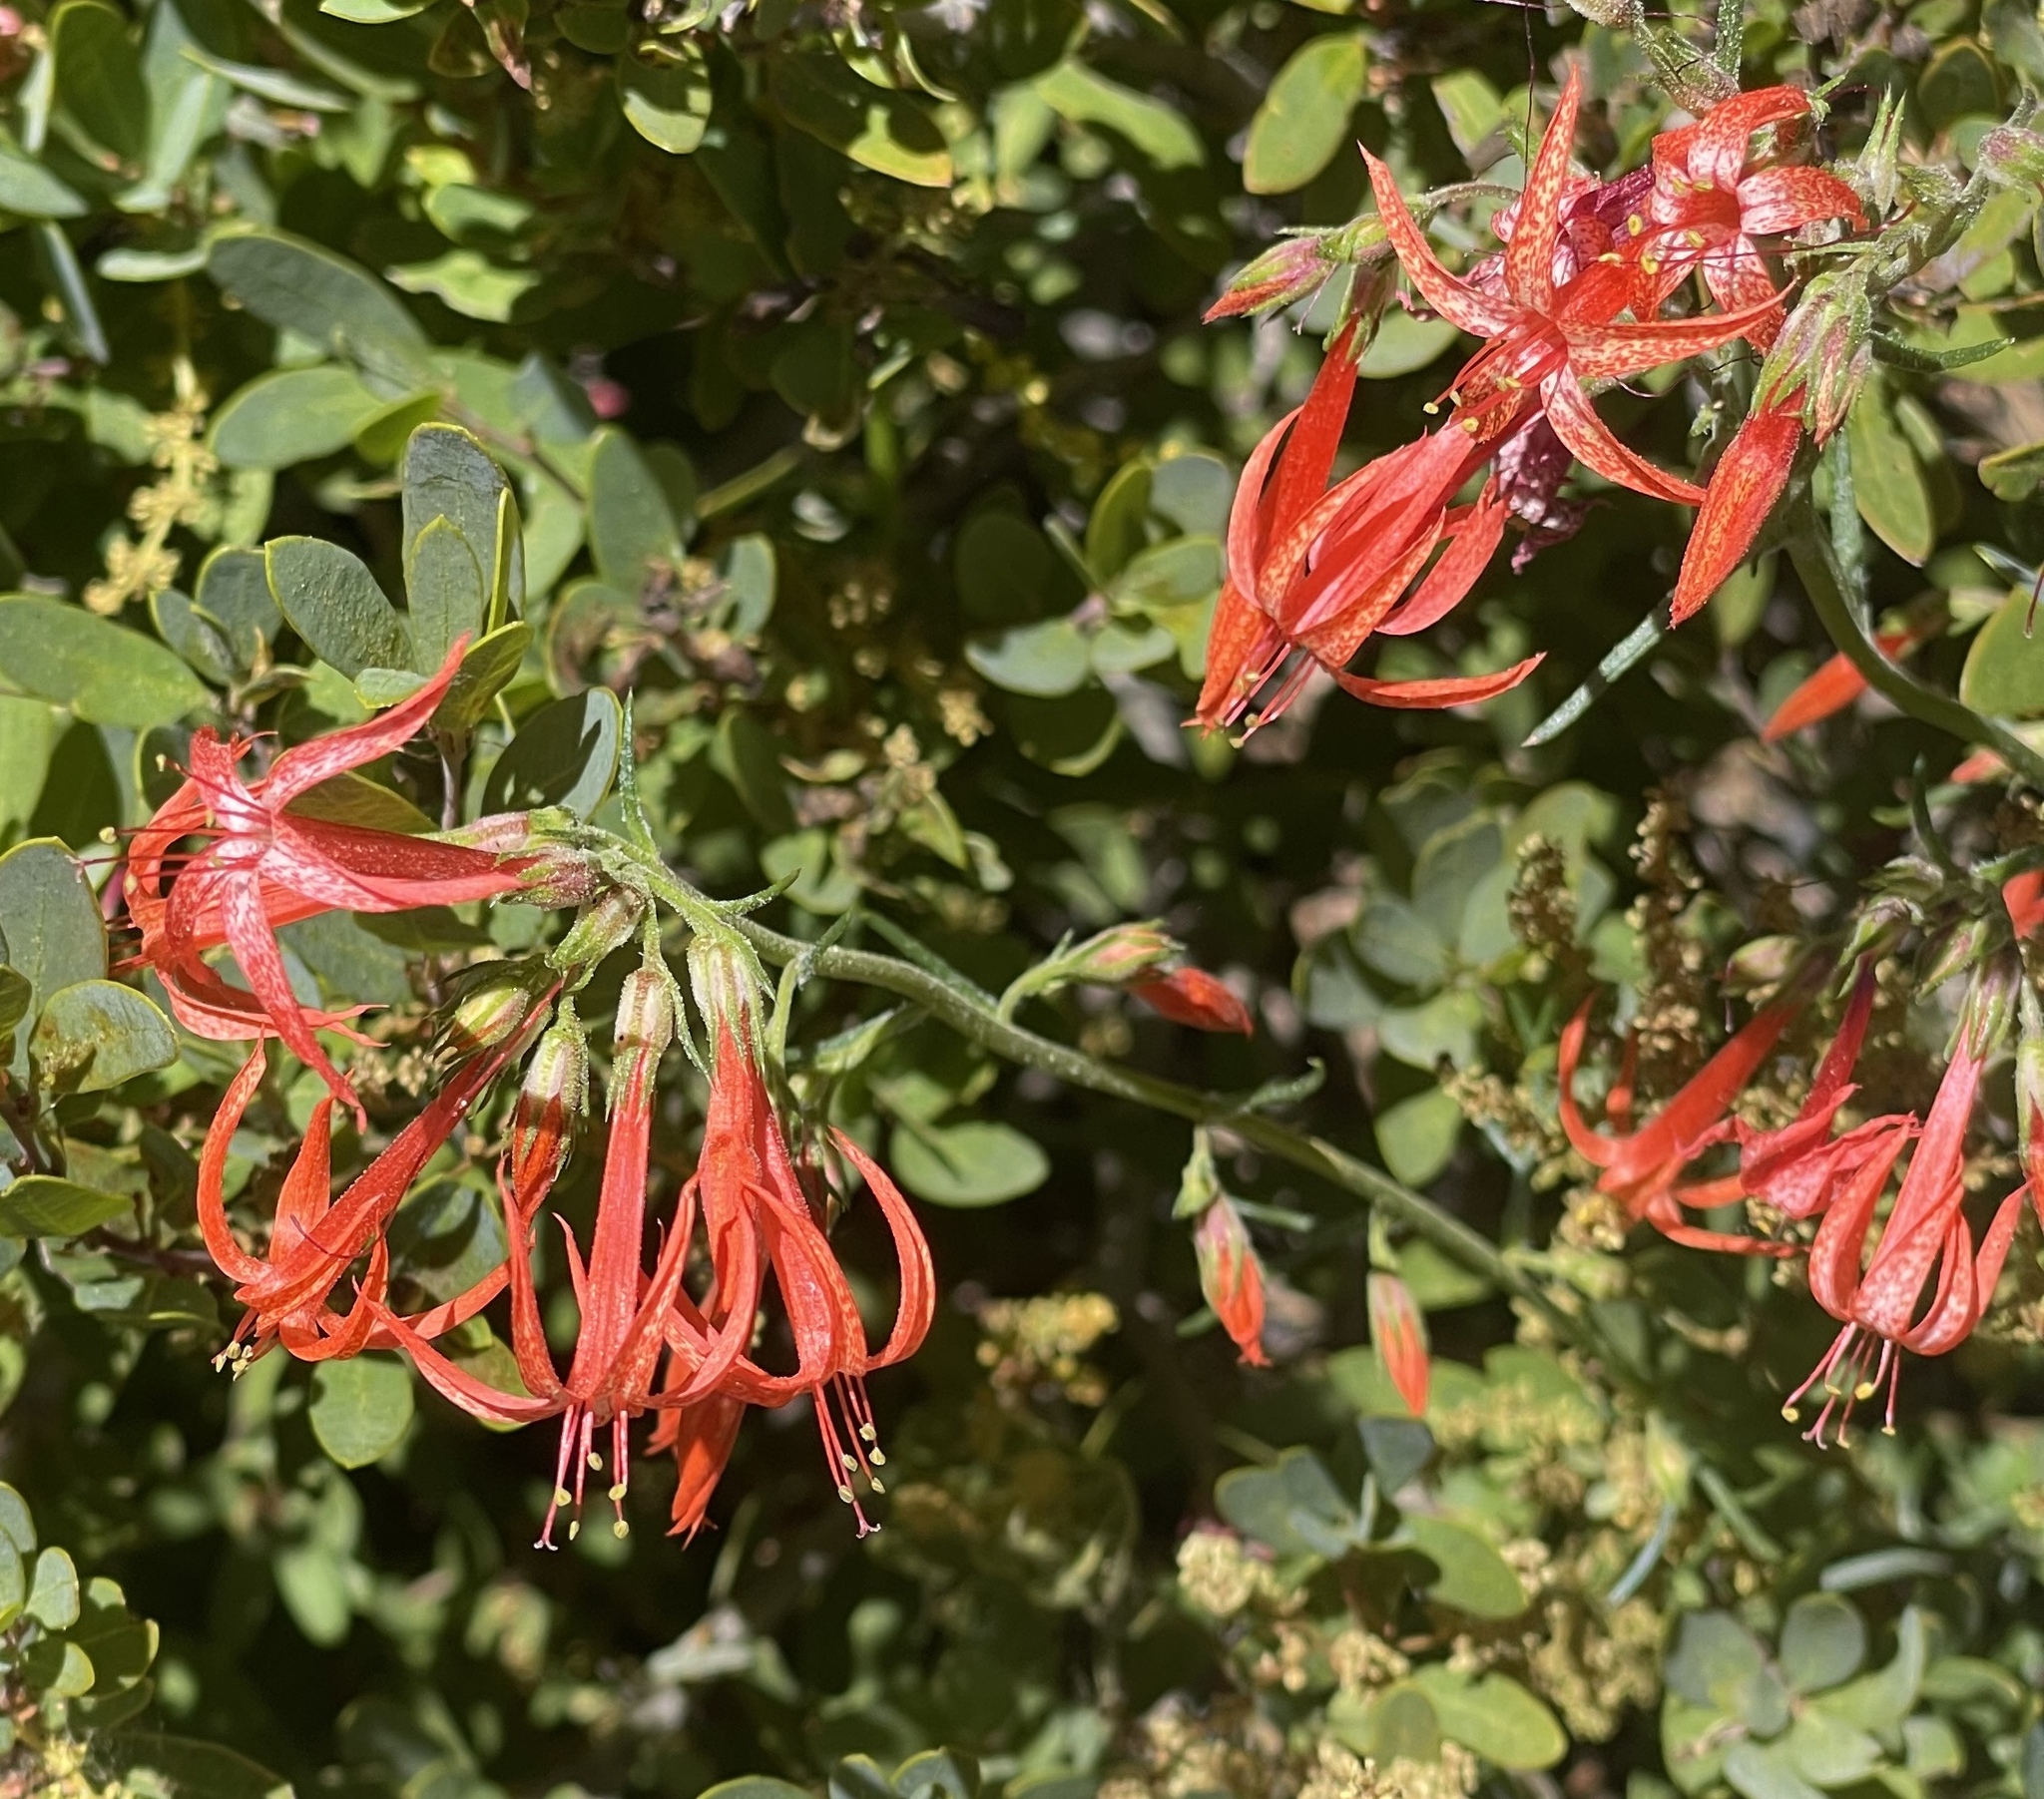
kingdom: Plantae
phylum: Tracheophyta
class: Magnoliopsida
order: Ericales
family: Polemoniaceae
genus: Ipomopsis
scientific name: Ipomopsis aggregata
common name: Scarlet gilia
